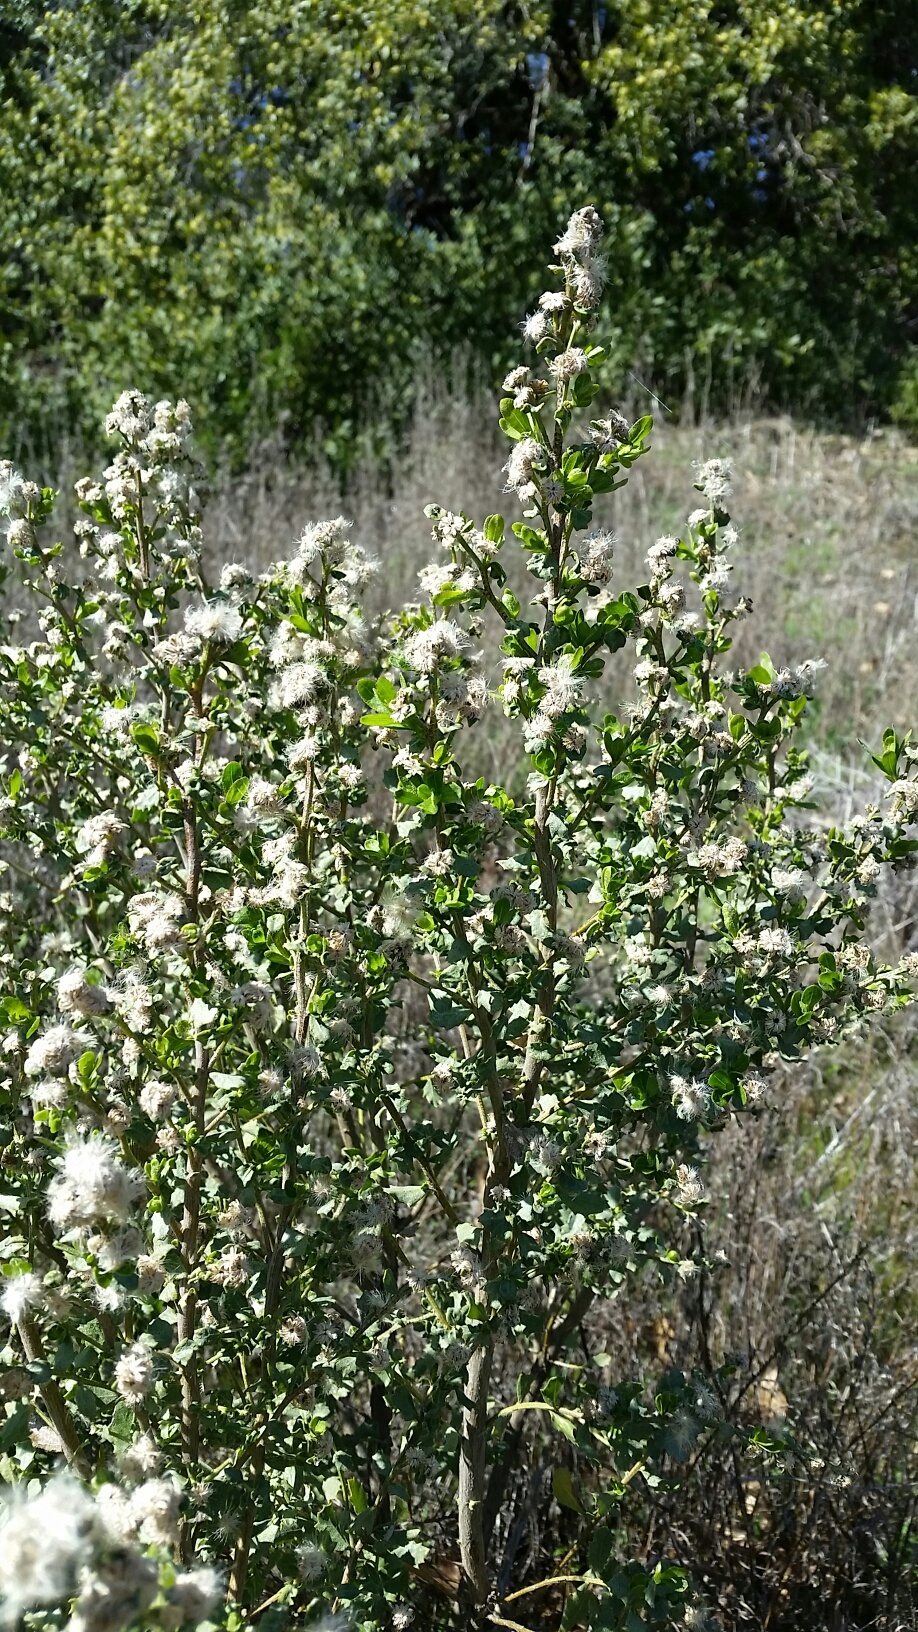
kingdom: Plantae
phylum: Tracheophyta
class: Magnoliopsida
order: Asterales
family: Asteraceae
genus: Baccharis
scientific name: Baccharis pilularis
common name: Coyotebrush
